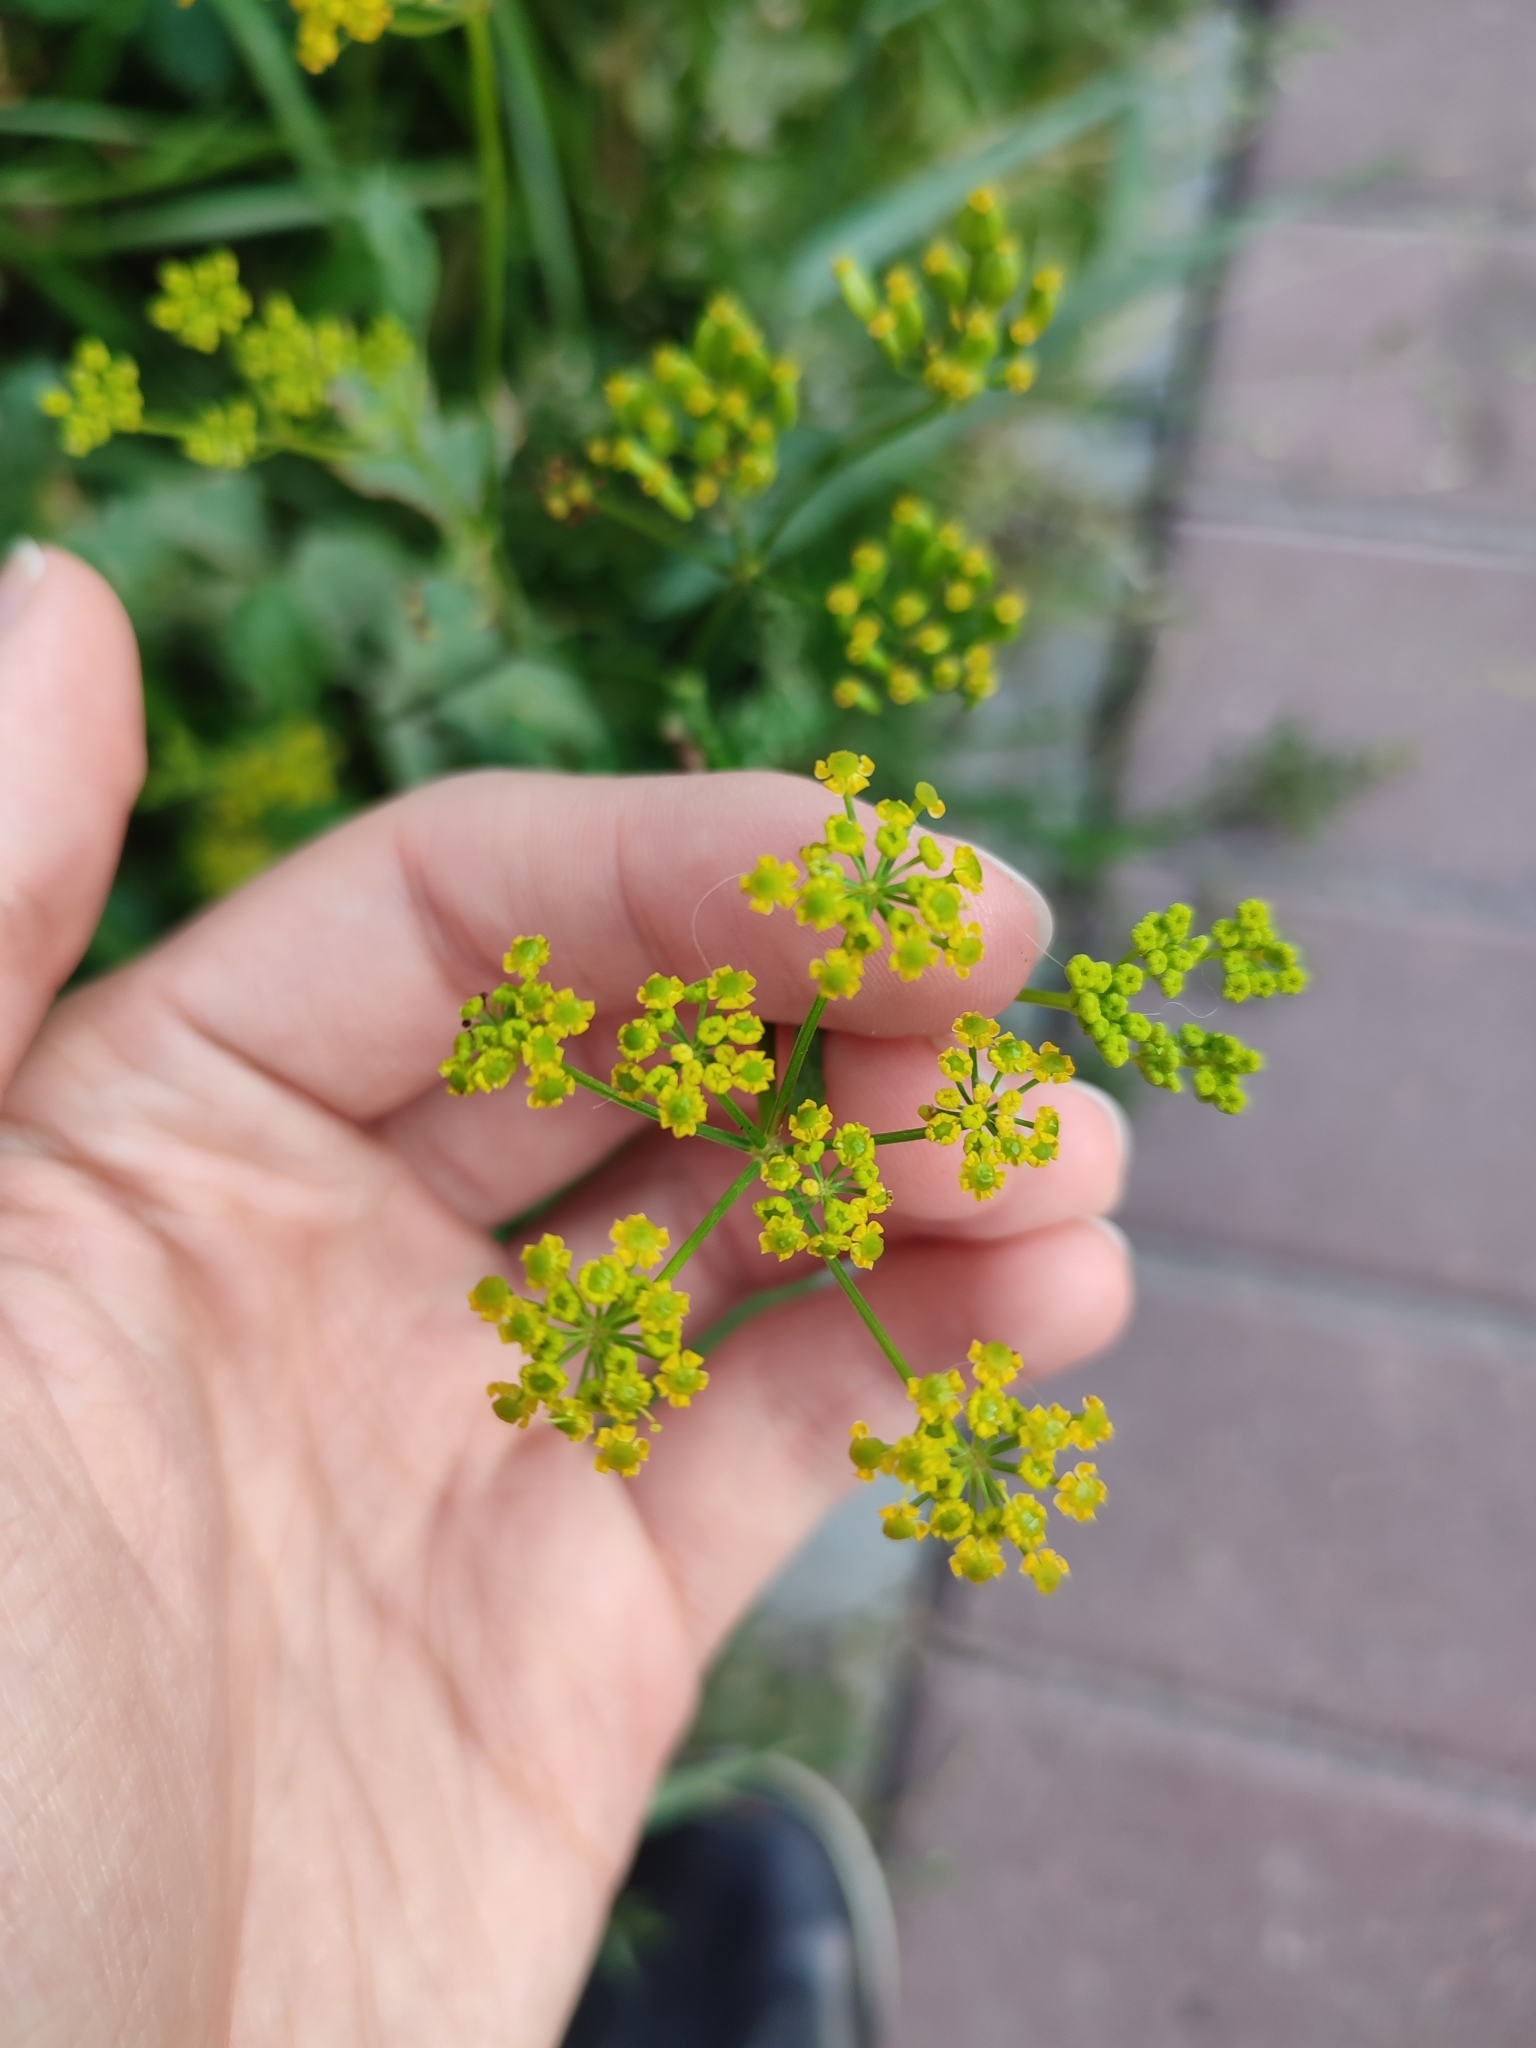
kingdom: Plantae
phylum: Tracheophyta
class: Magnoliopsida
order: Apiales
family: Apiaceae
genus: Pastinaca
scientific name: Pastinaca sativa
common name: Wild parsnip
